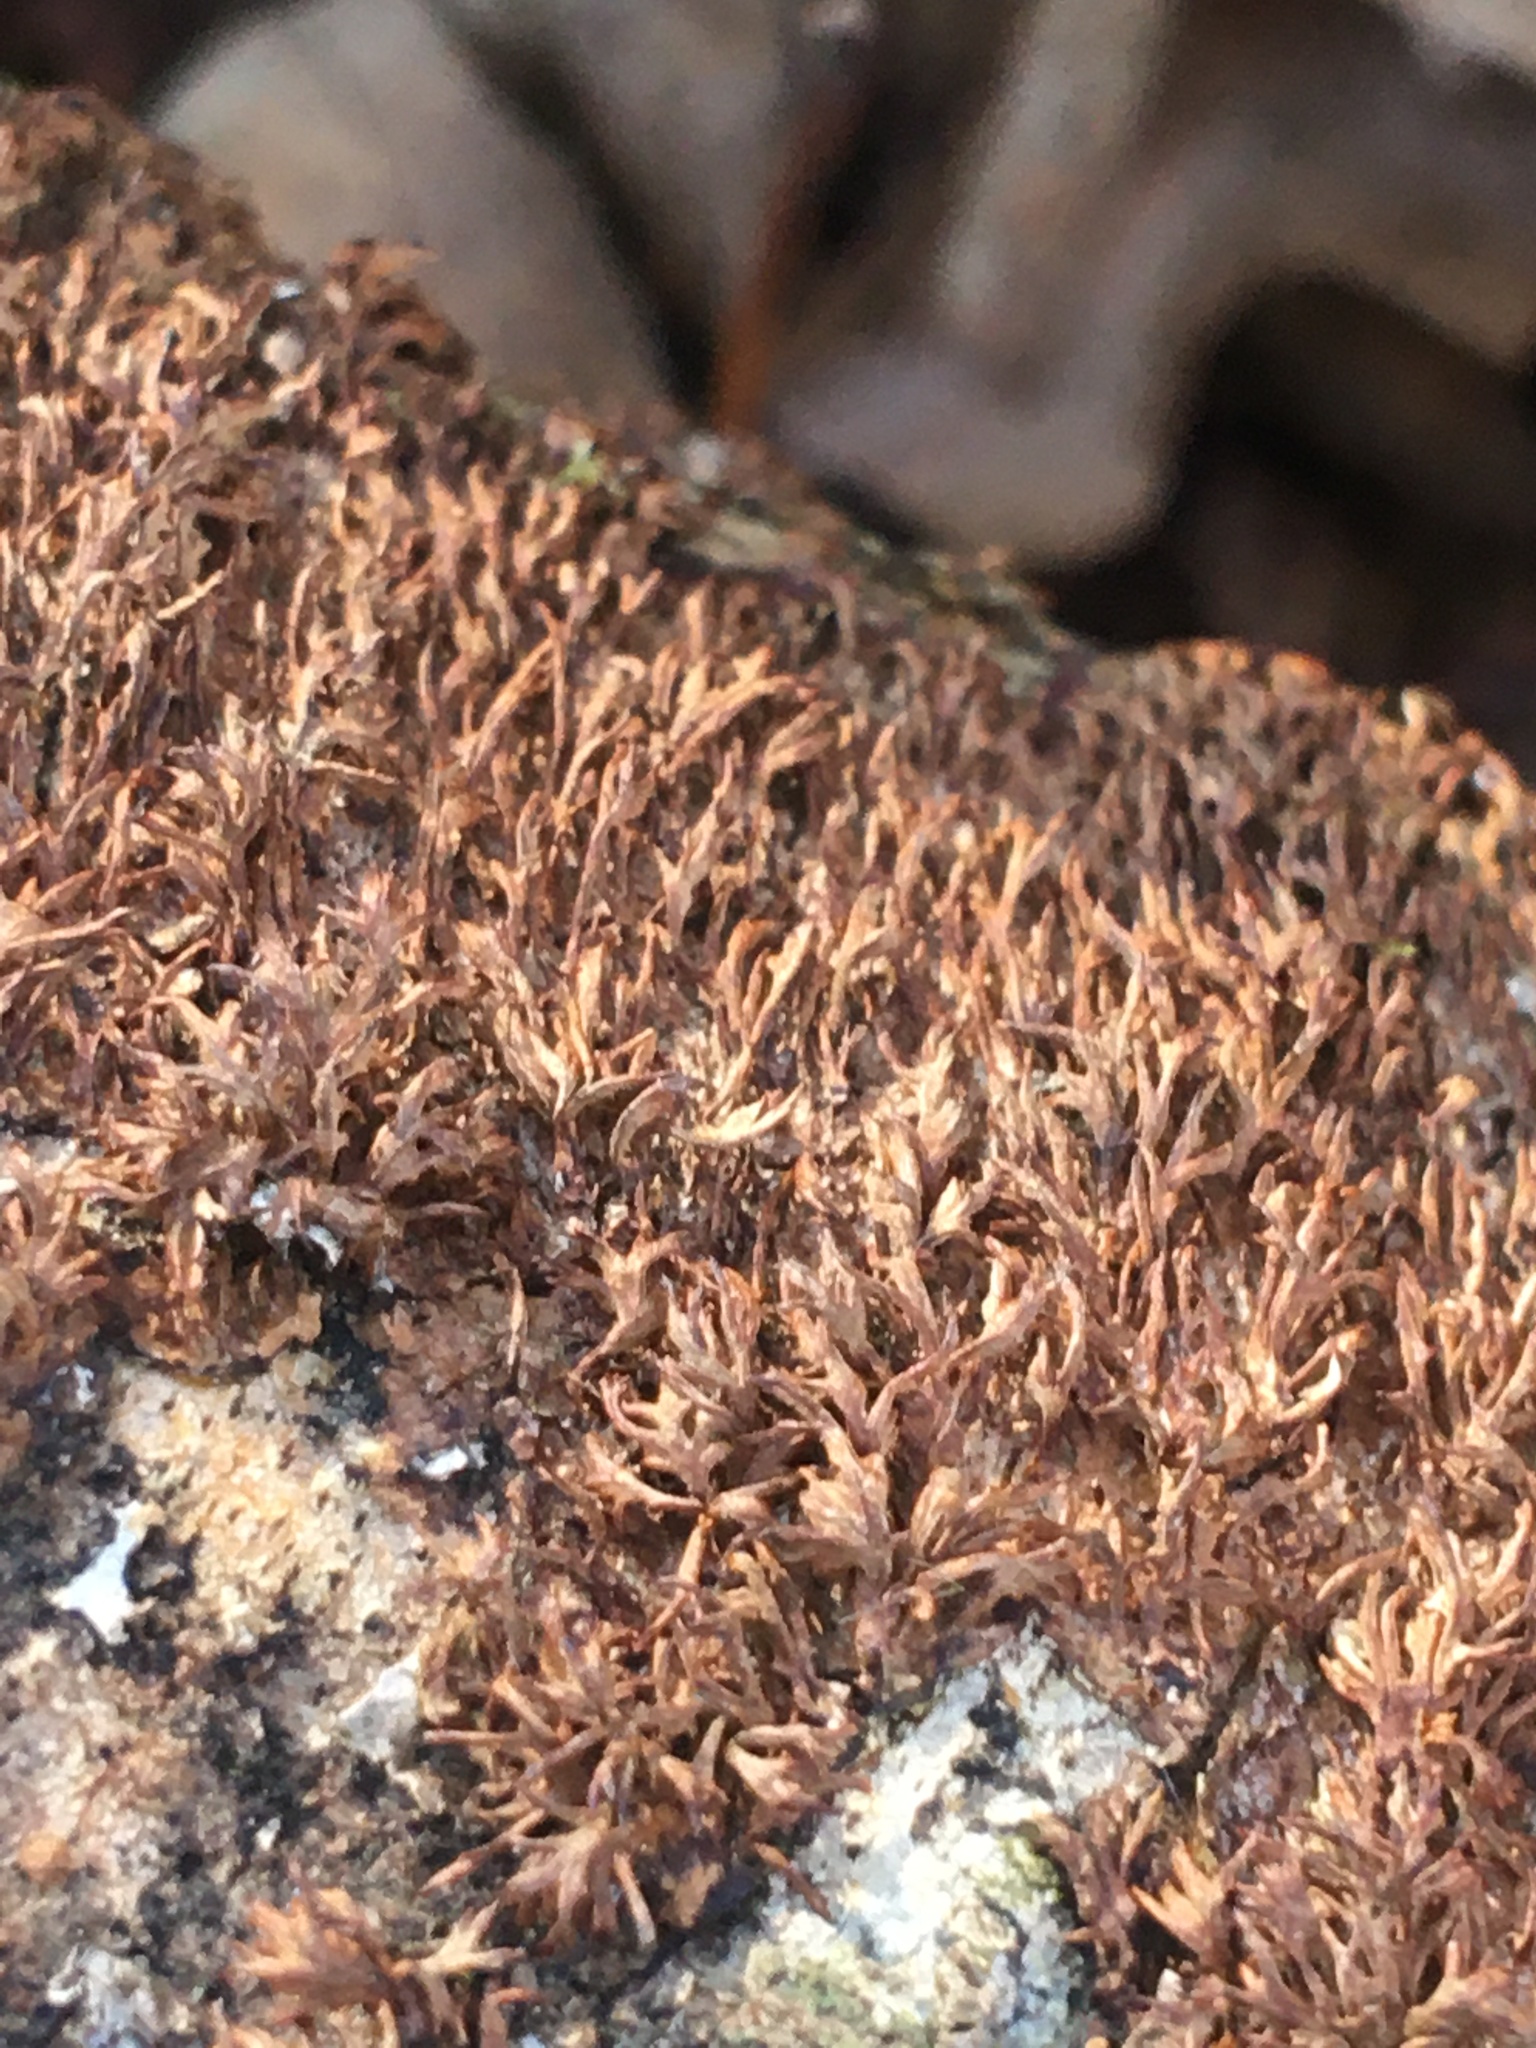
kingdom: Fungi
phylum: Basidiomycota
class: Agaricomycetes
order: Hymenochaetales
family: Hymenochaetaceae
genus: Hydnoporia
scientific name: Hydnoporia olivacea
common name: Brown-toothed crust fungus
